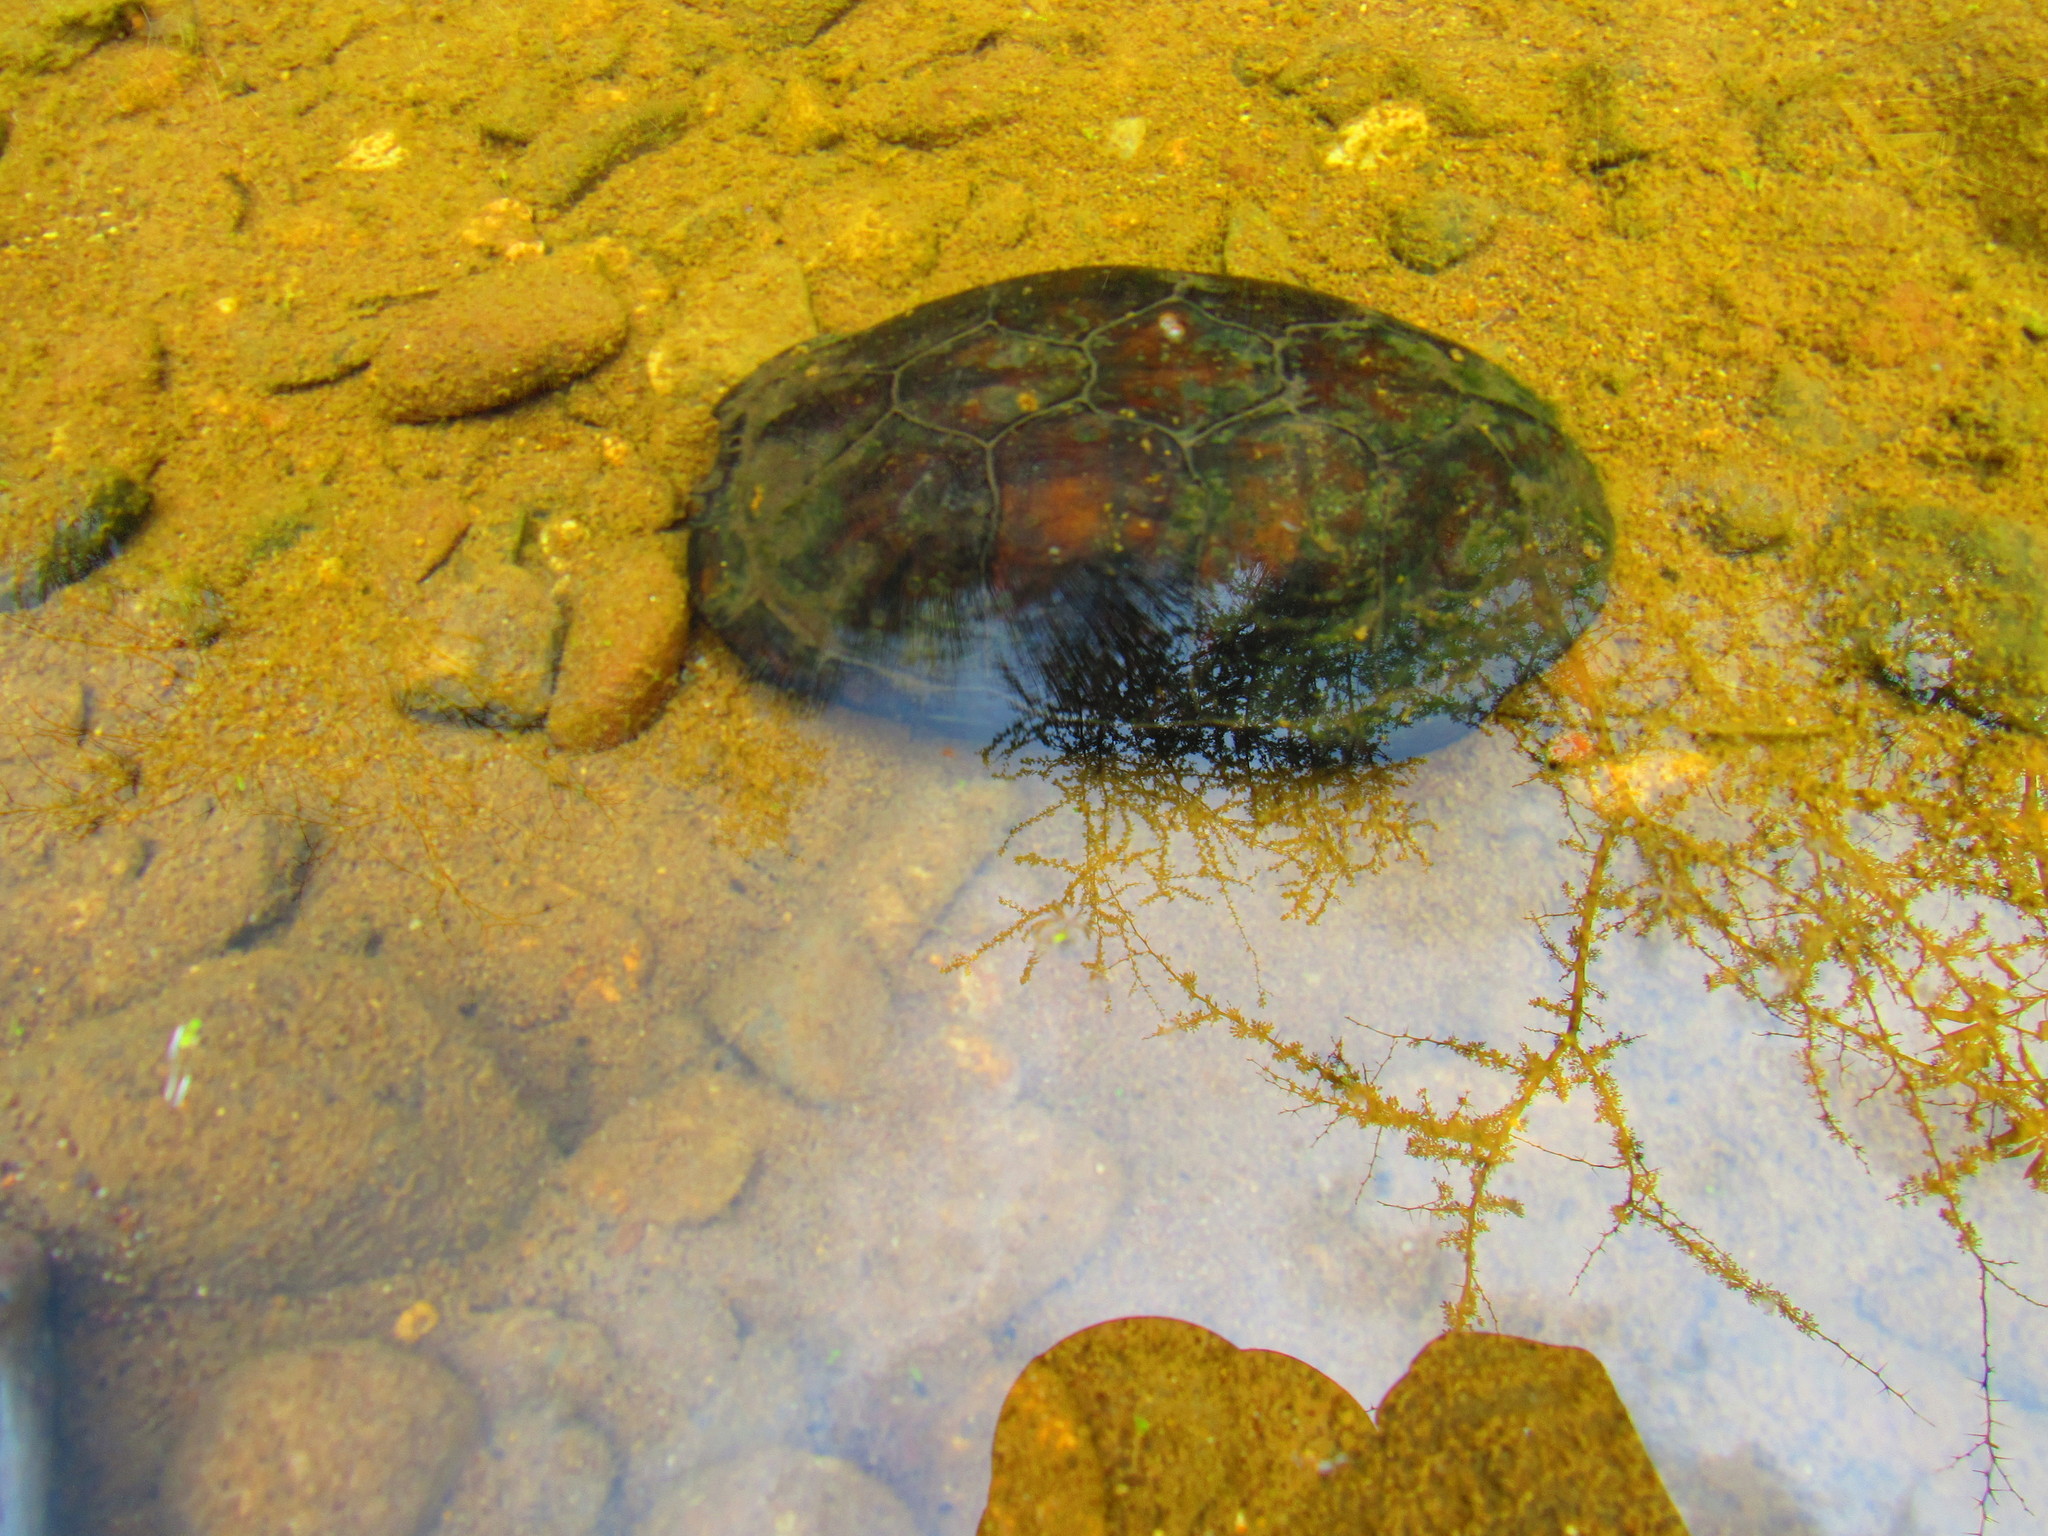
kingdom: Animalia
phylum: Chordata
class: Testudines
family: Kinosternidae
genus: Kinosternon
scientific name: Kinosternon integrum
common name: Mexican mud turtle
